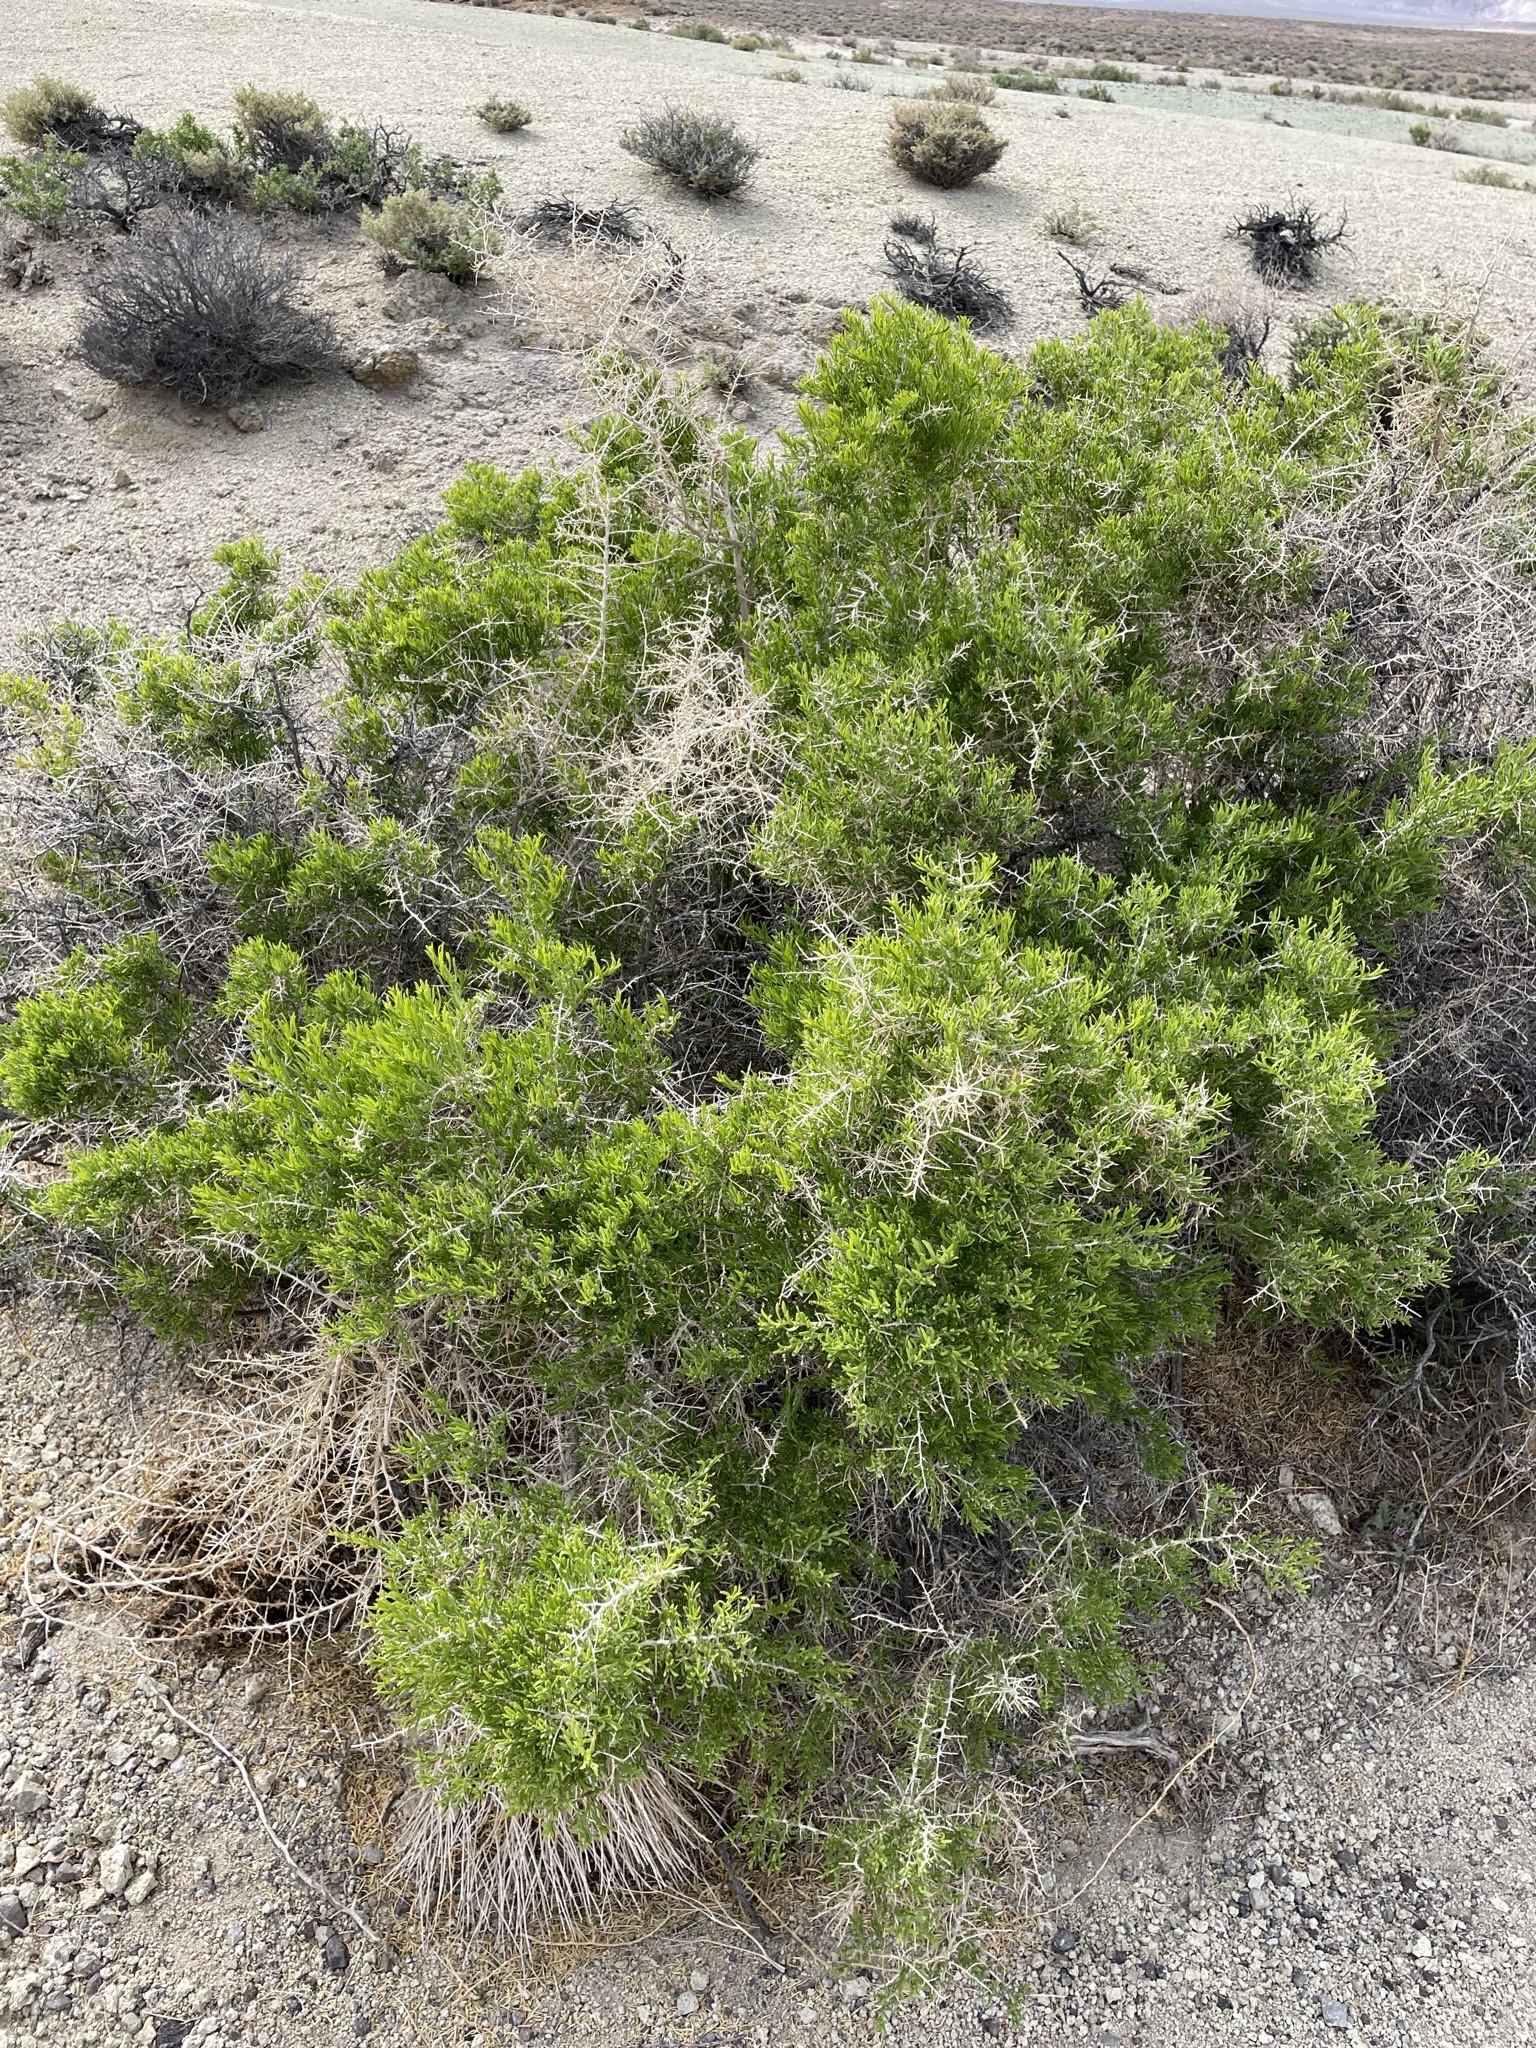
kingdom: Plantae
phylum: Tracheophyta
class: Magnoliopsida
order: Caryophyllales
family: Sarcobataceae
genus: Sarcobatus
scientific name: Sarcobatus vermiculatus
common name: Greasewood
